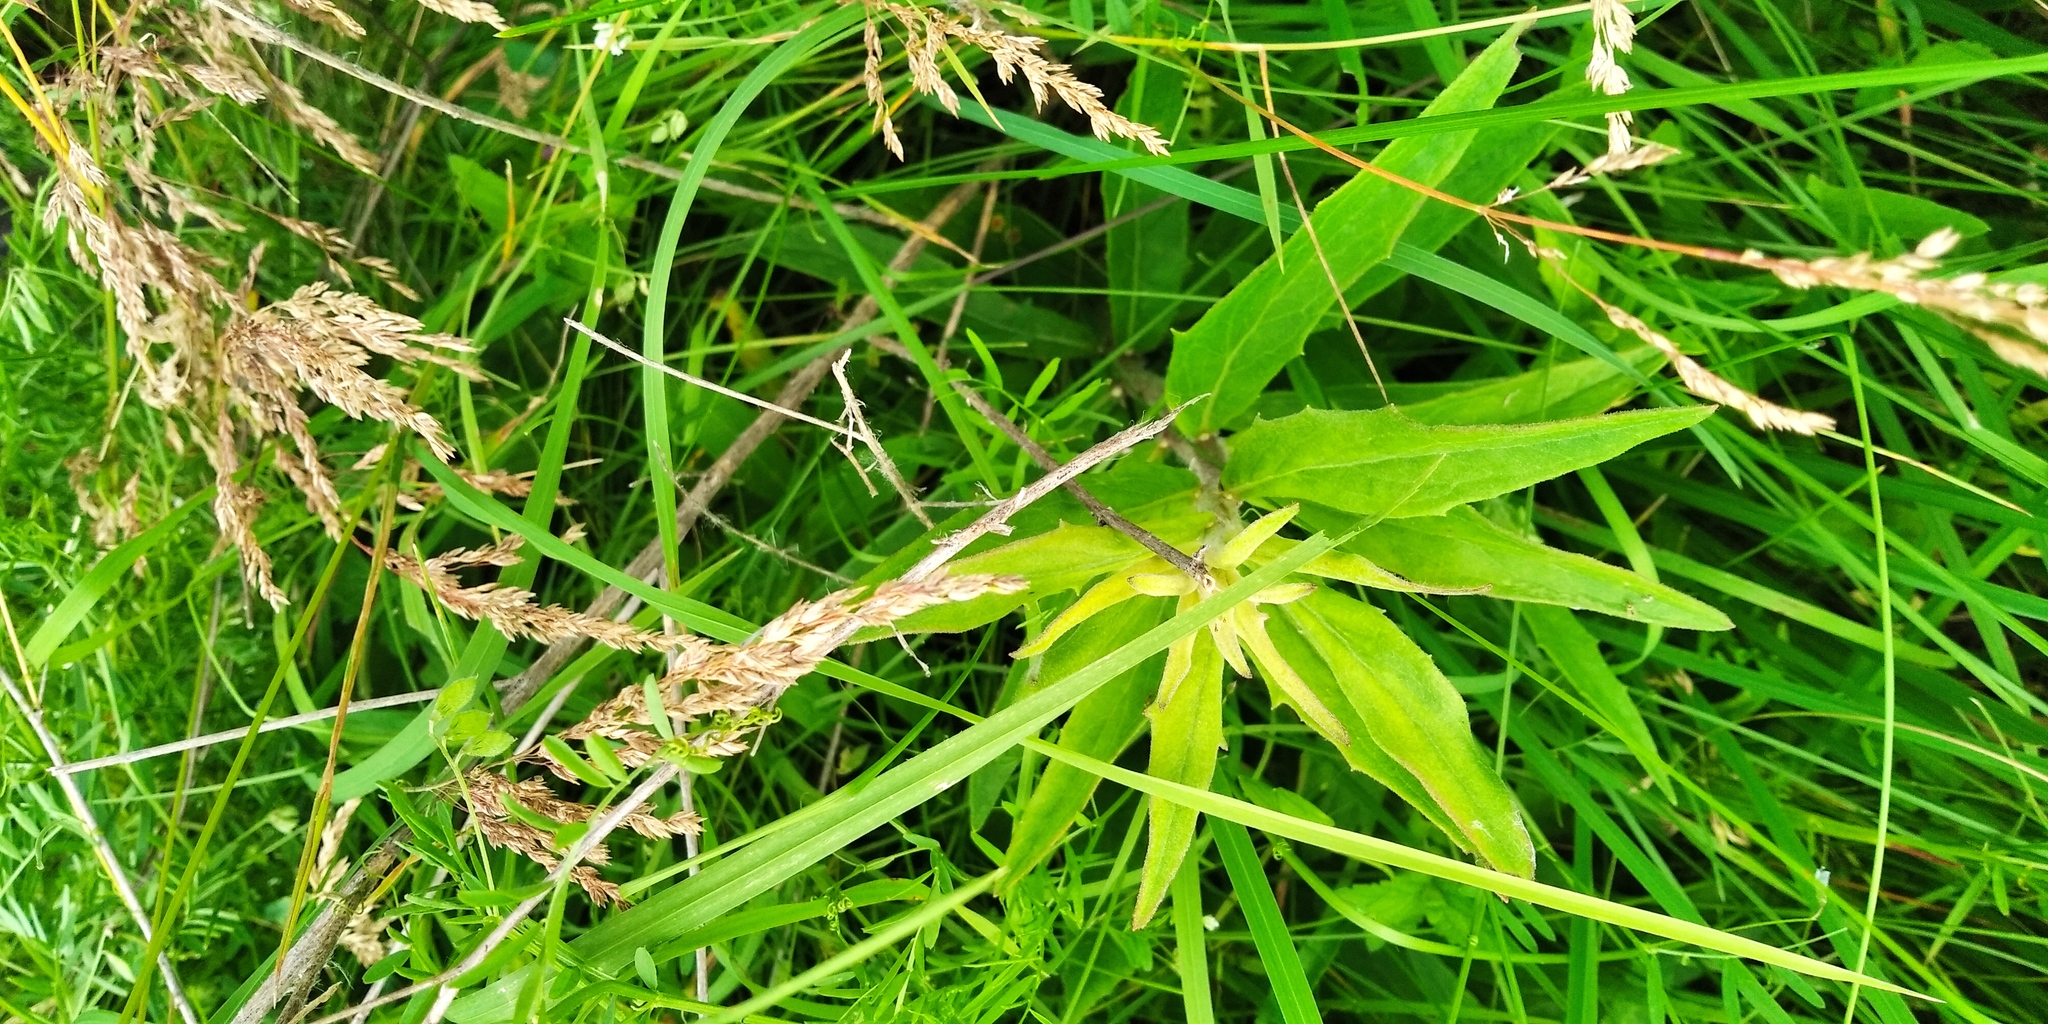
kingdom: Plantae
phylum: Tracheophyta
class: Magnoliopsida
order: Asterales
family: Asteraceae
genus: Hieracium
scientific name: Hieracium umbellatum
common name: Northern hawkweed
